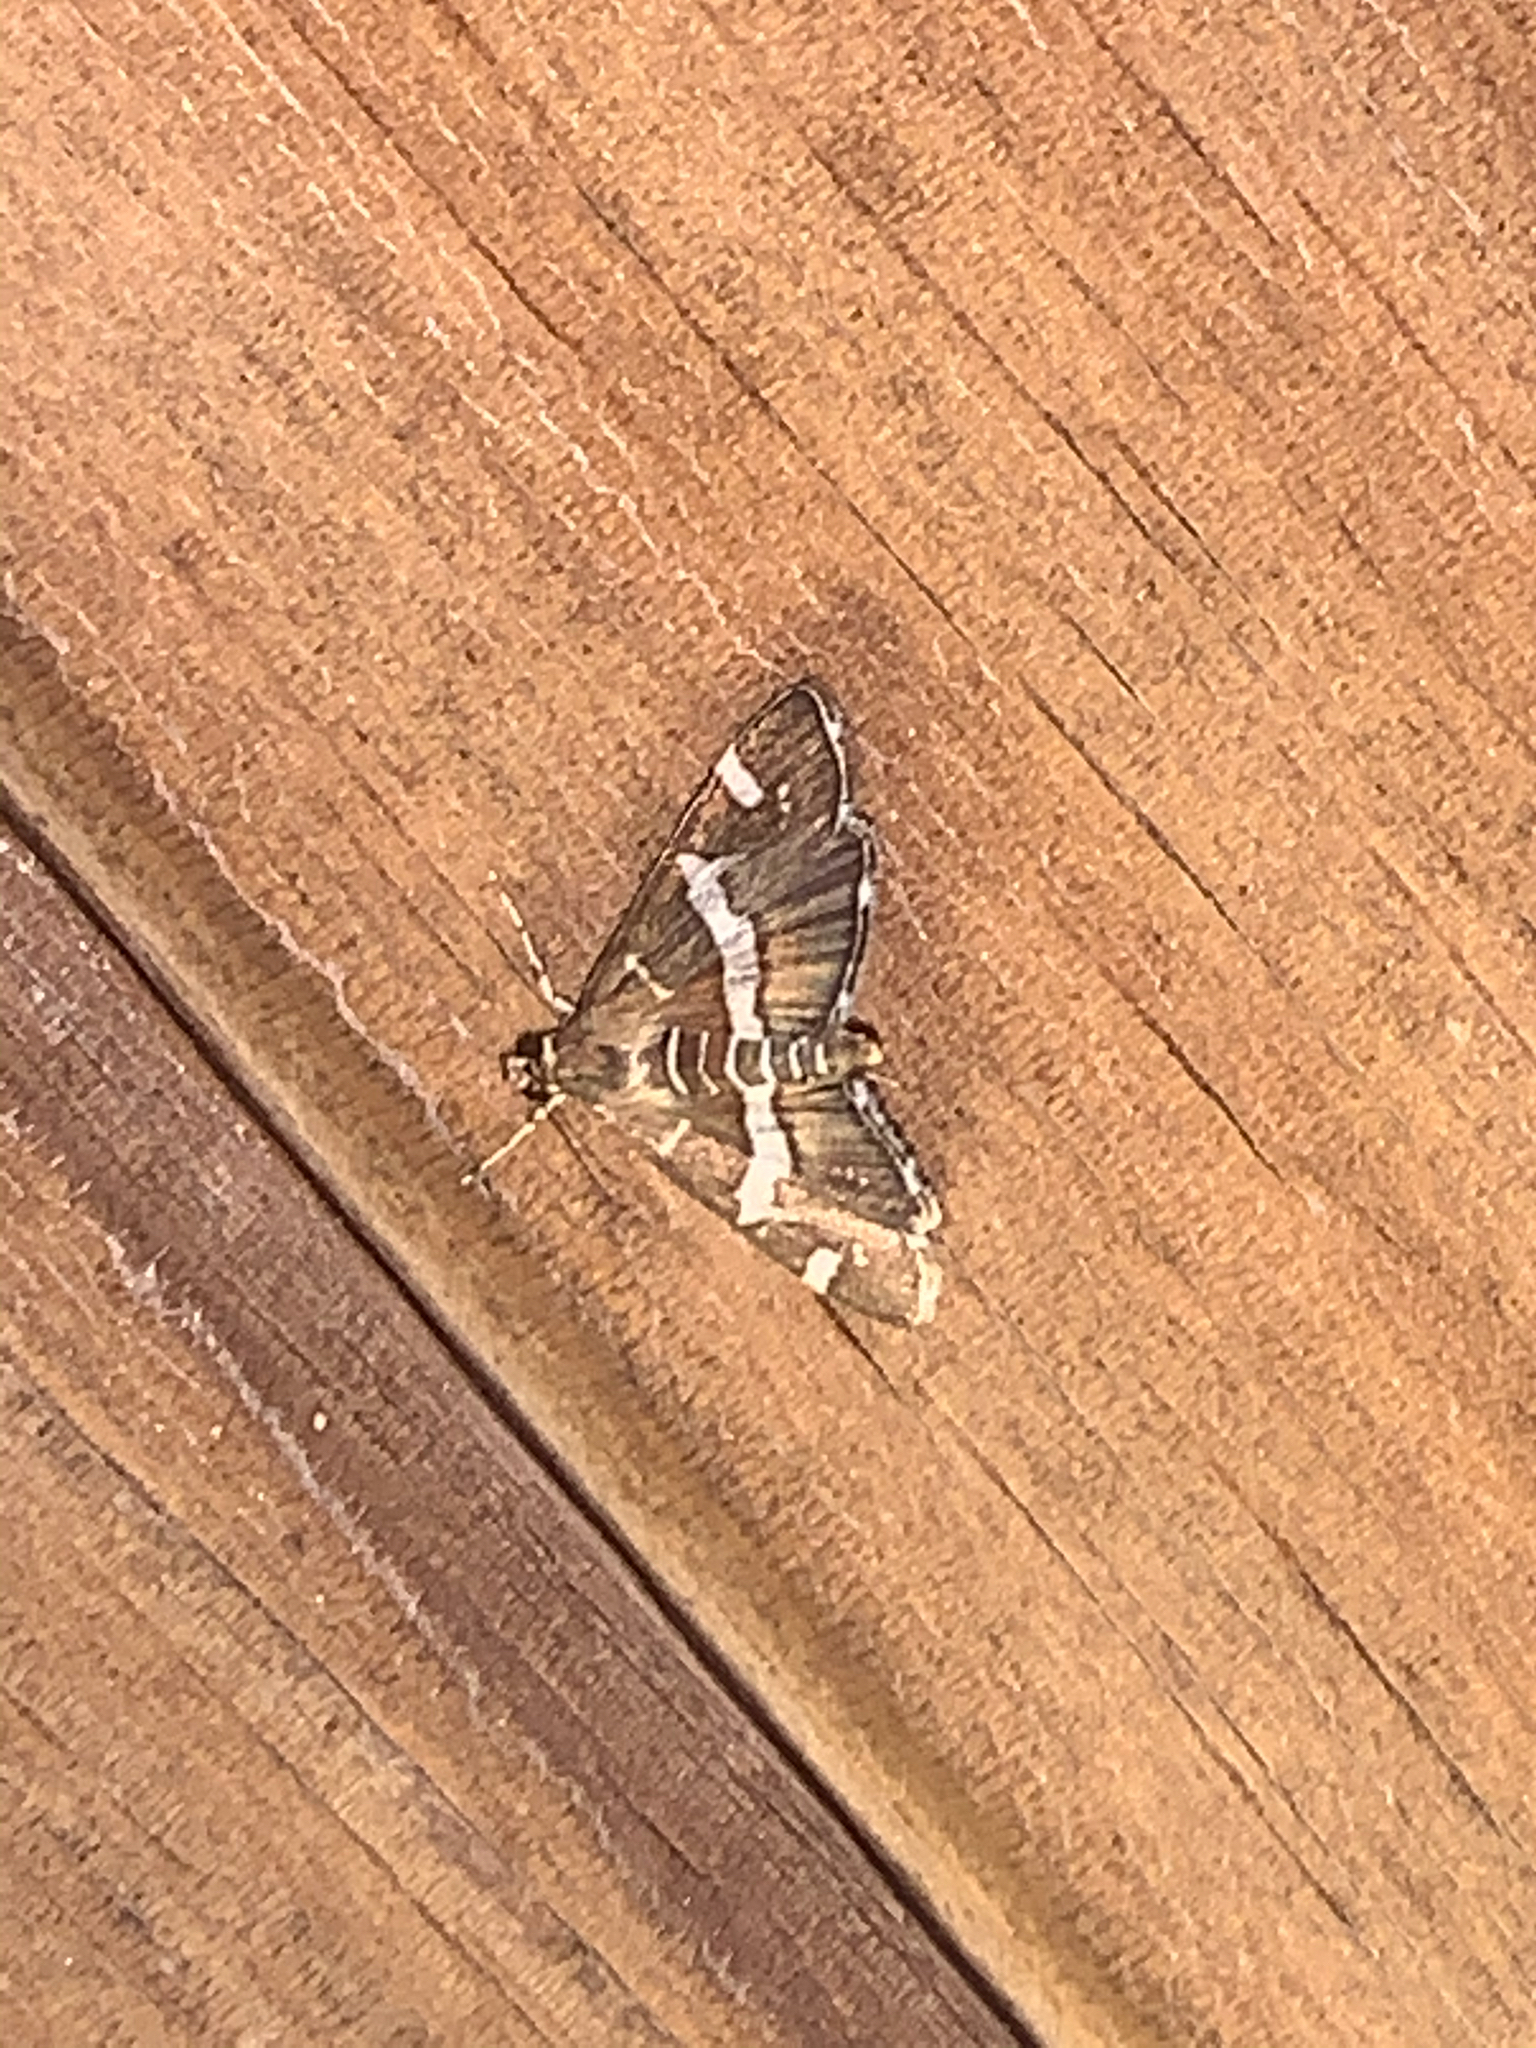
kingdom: Animalia
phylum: Arthropoda
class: Insecta
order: Lepidoptera
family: Crambidae
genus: Spoladea
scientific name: Spoladea recurvalis
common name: Beet webworm moth
